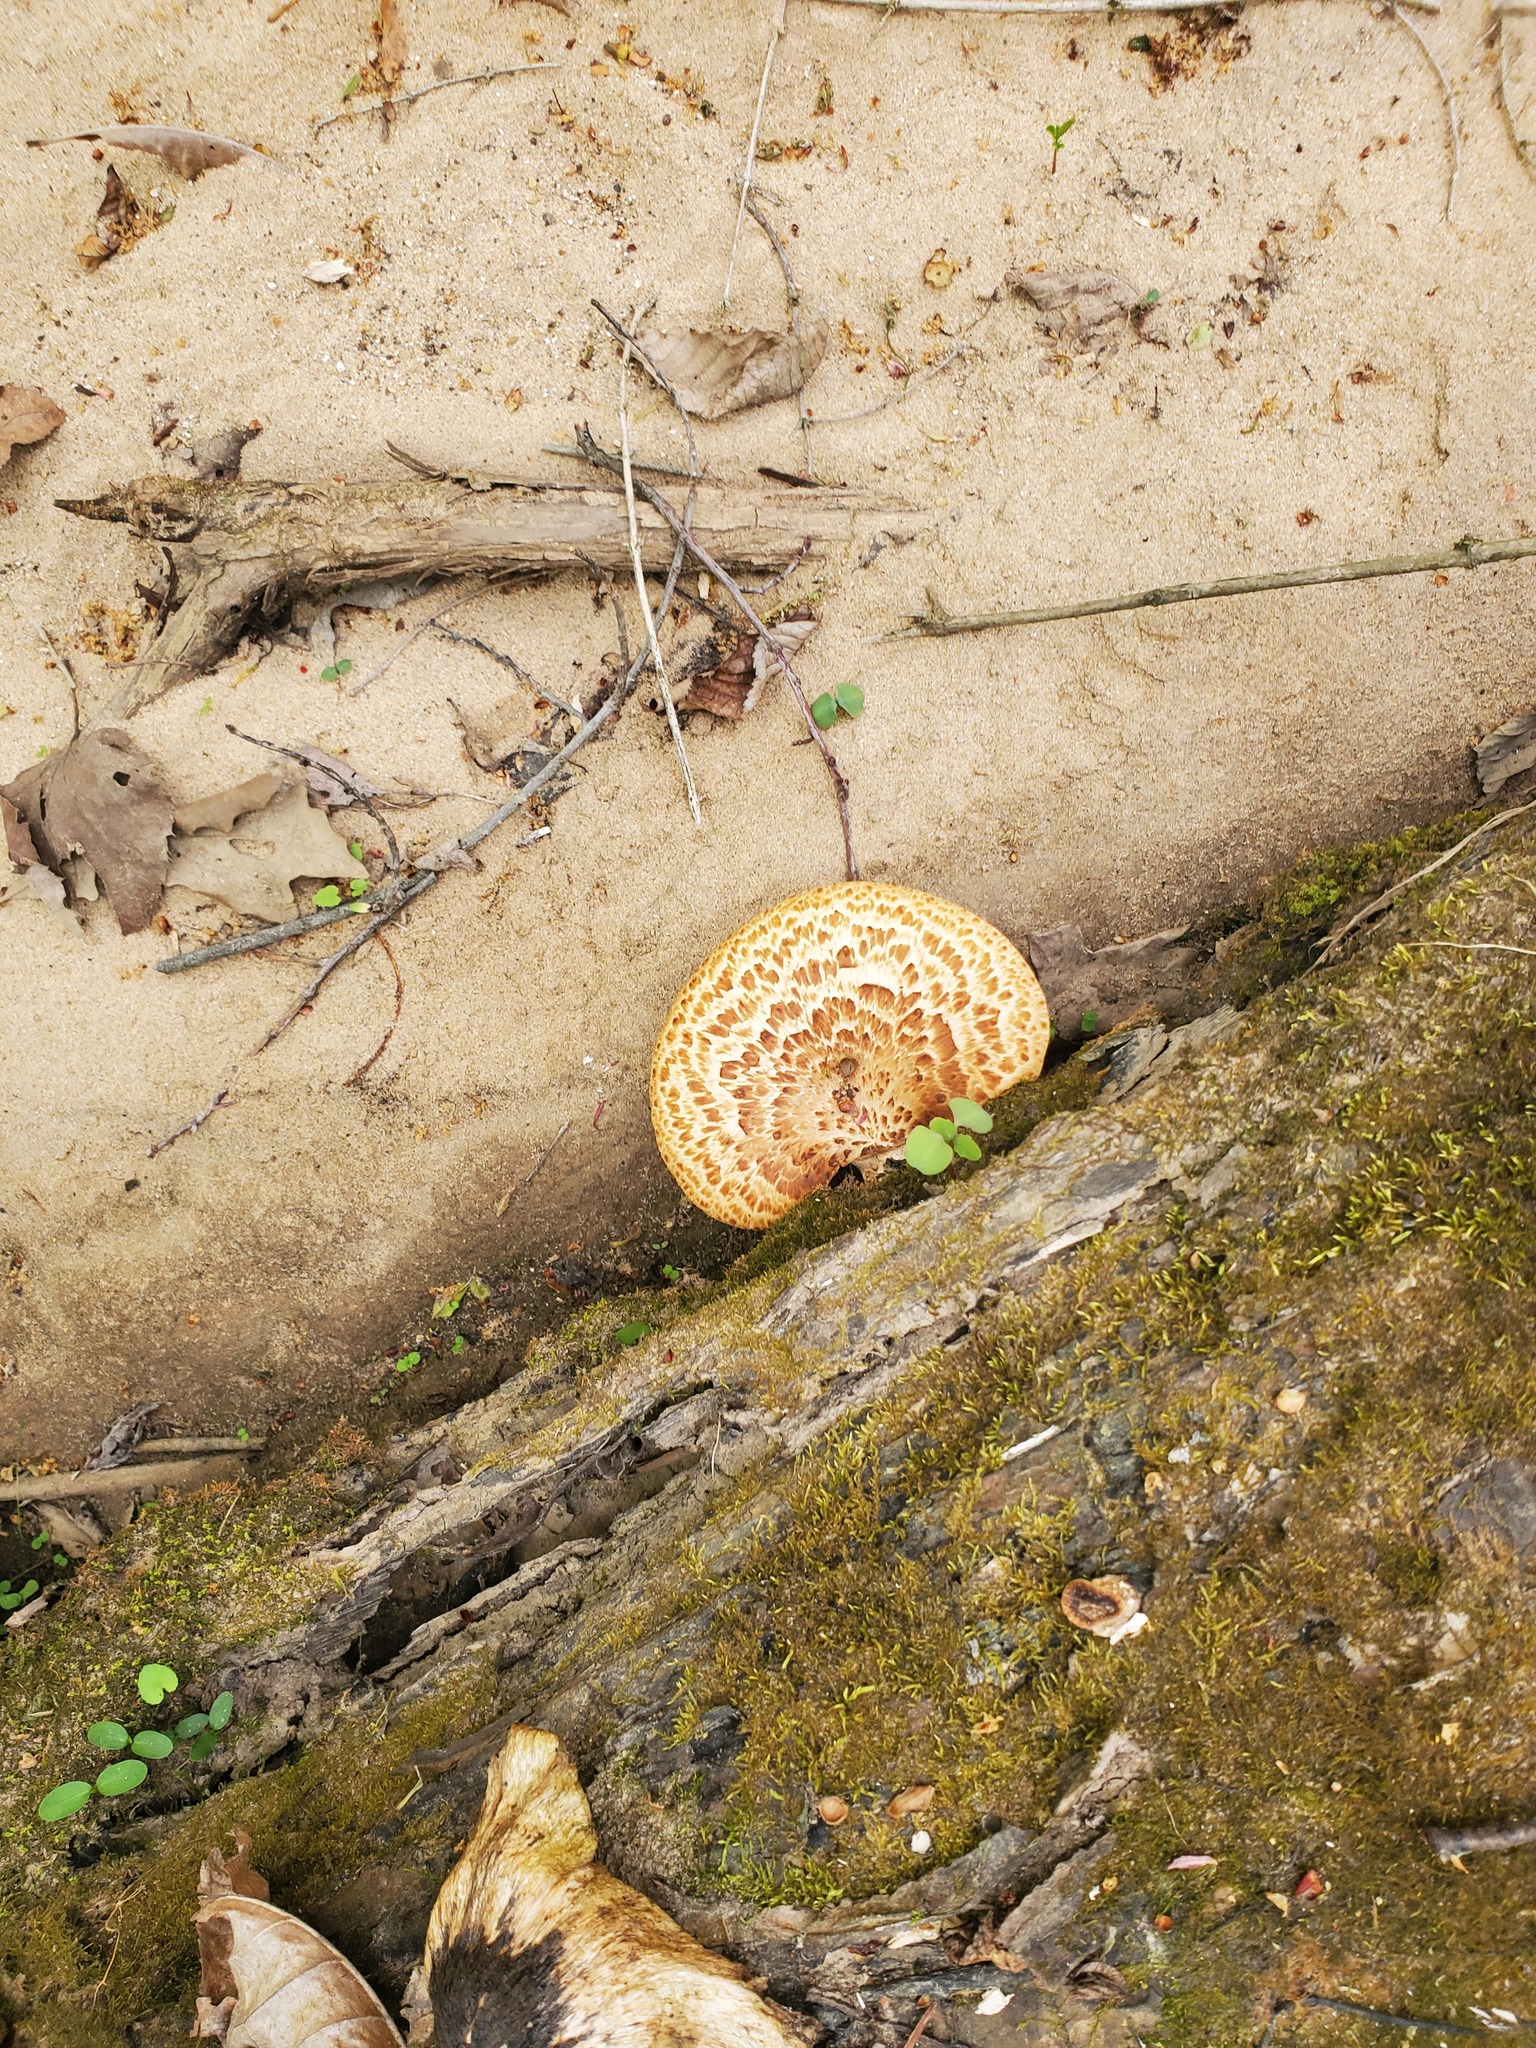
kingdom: Fungi
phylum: Basidiomycota
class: Agaricomycetes
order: Polyporales
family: Polyporaceae
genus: Cerioporus
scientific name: Cerioporus squamosus
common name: Dryad's saddle
